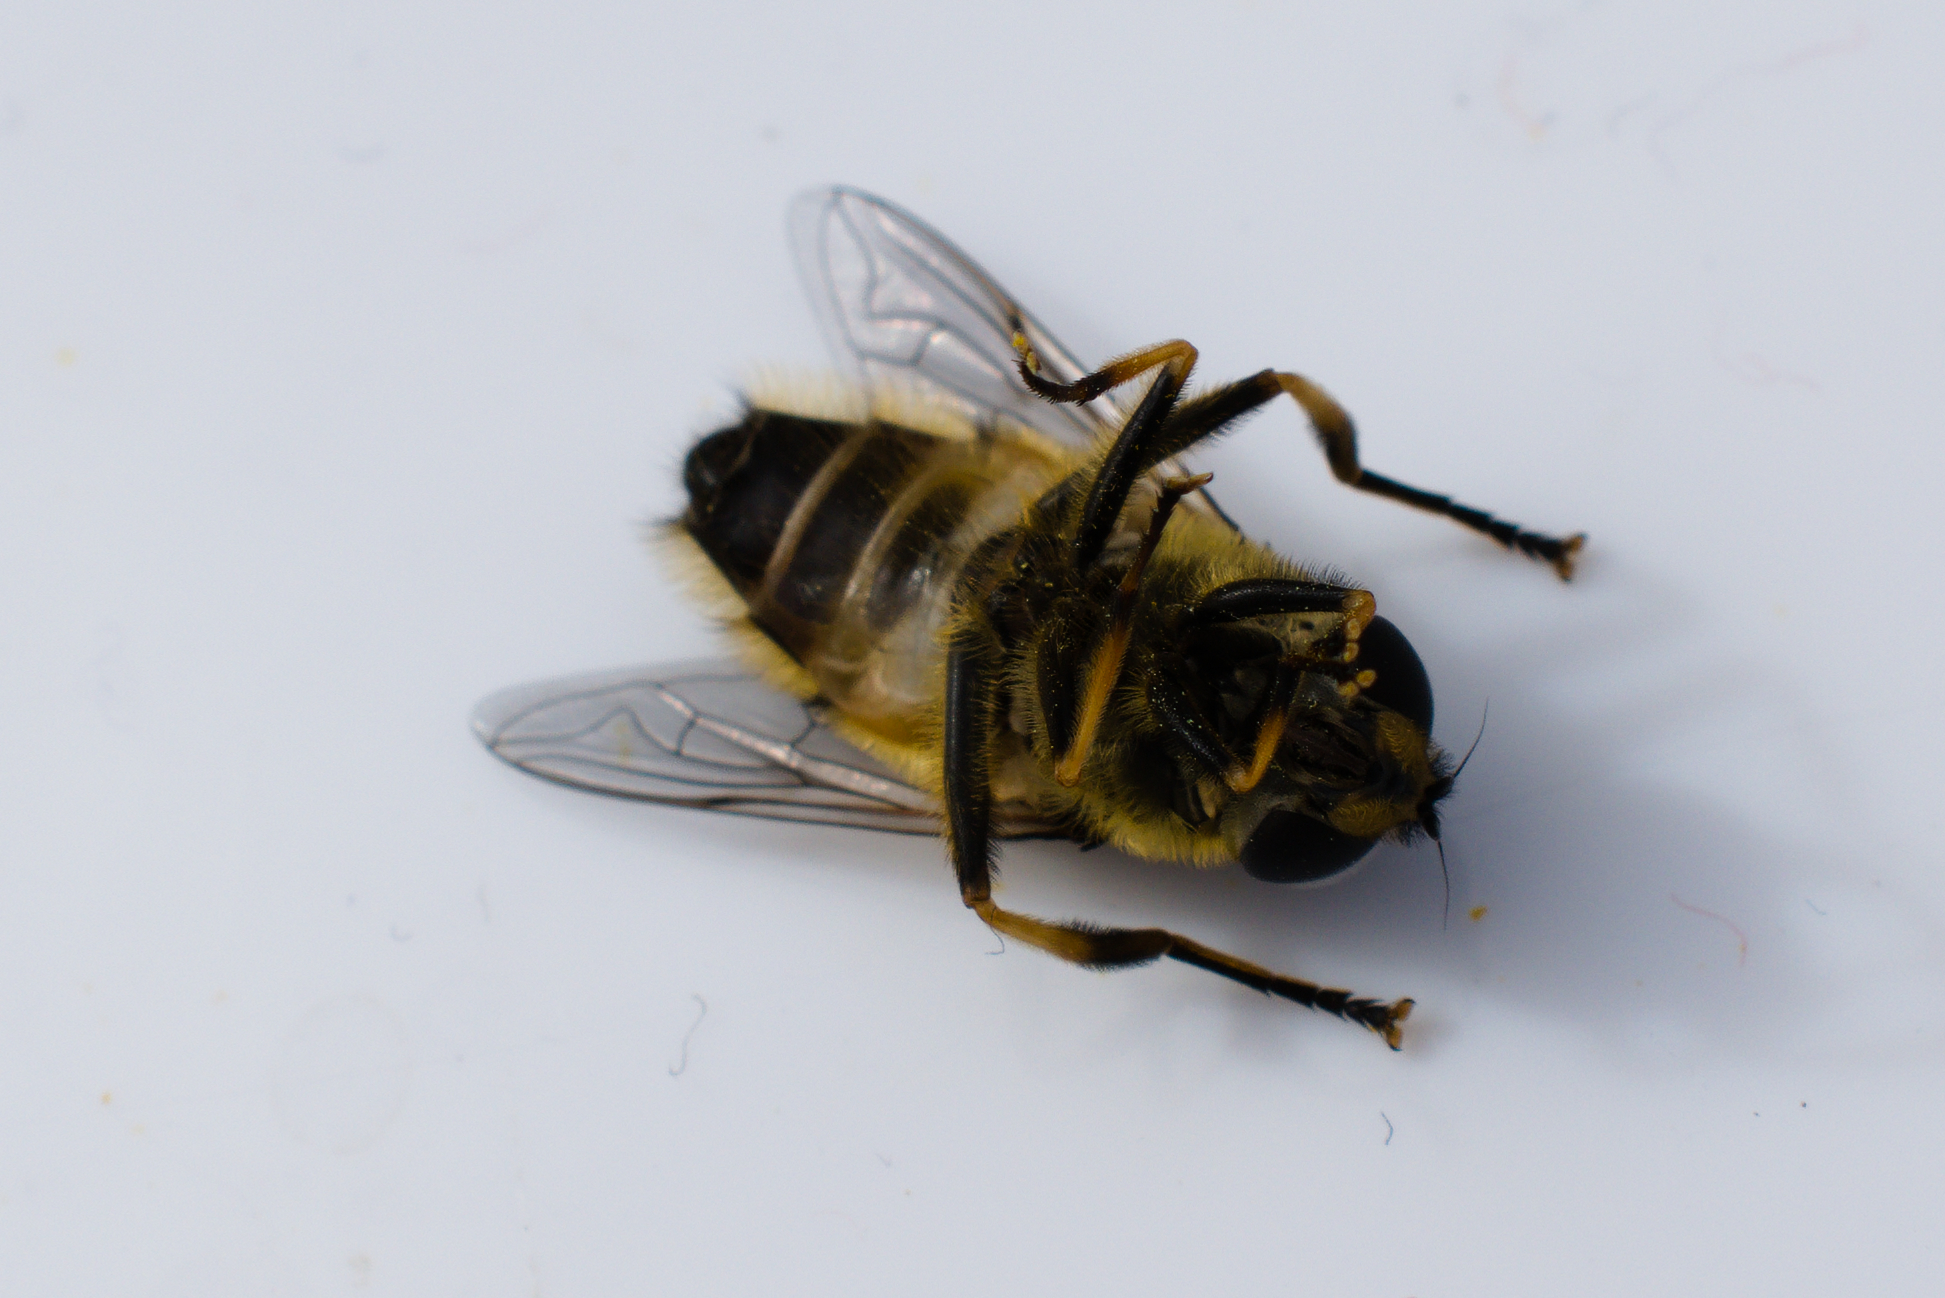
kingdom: Animalia
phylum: Arthropoda
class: Insecta
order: Diptera
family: Syrphidae
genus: Myathropa
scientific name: Myathropa florea
